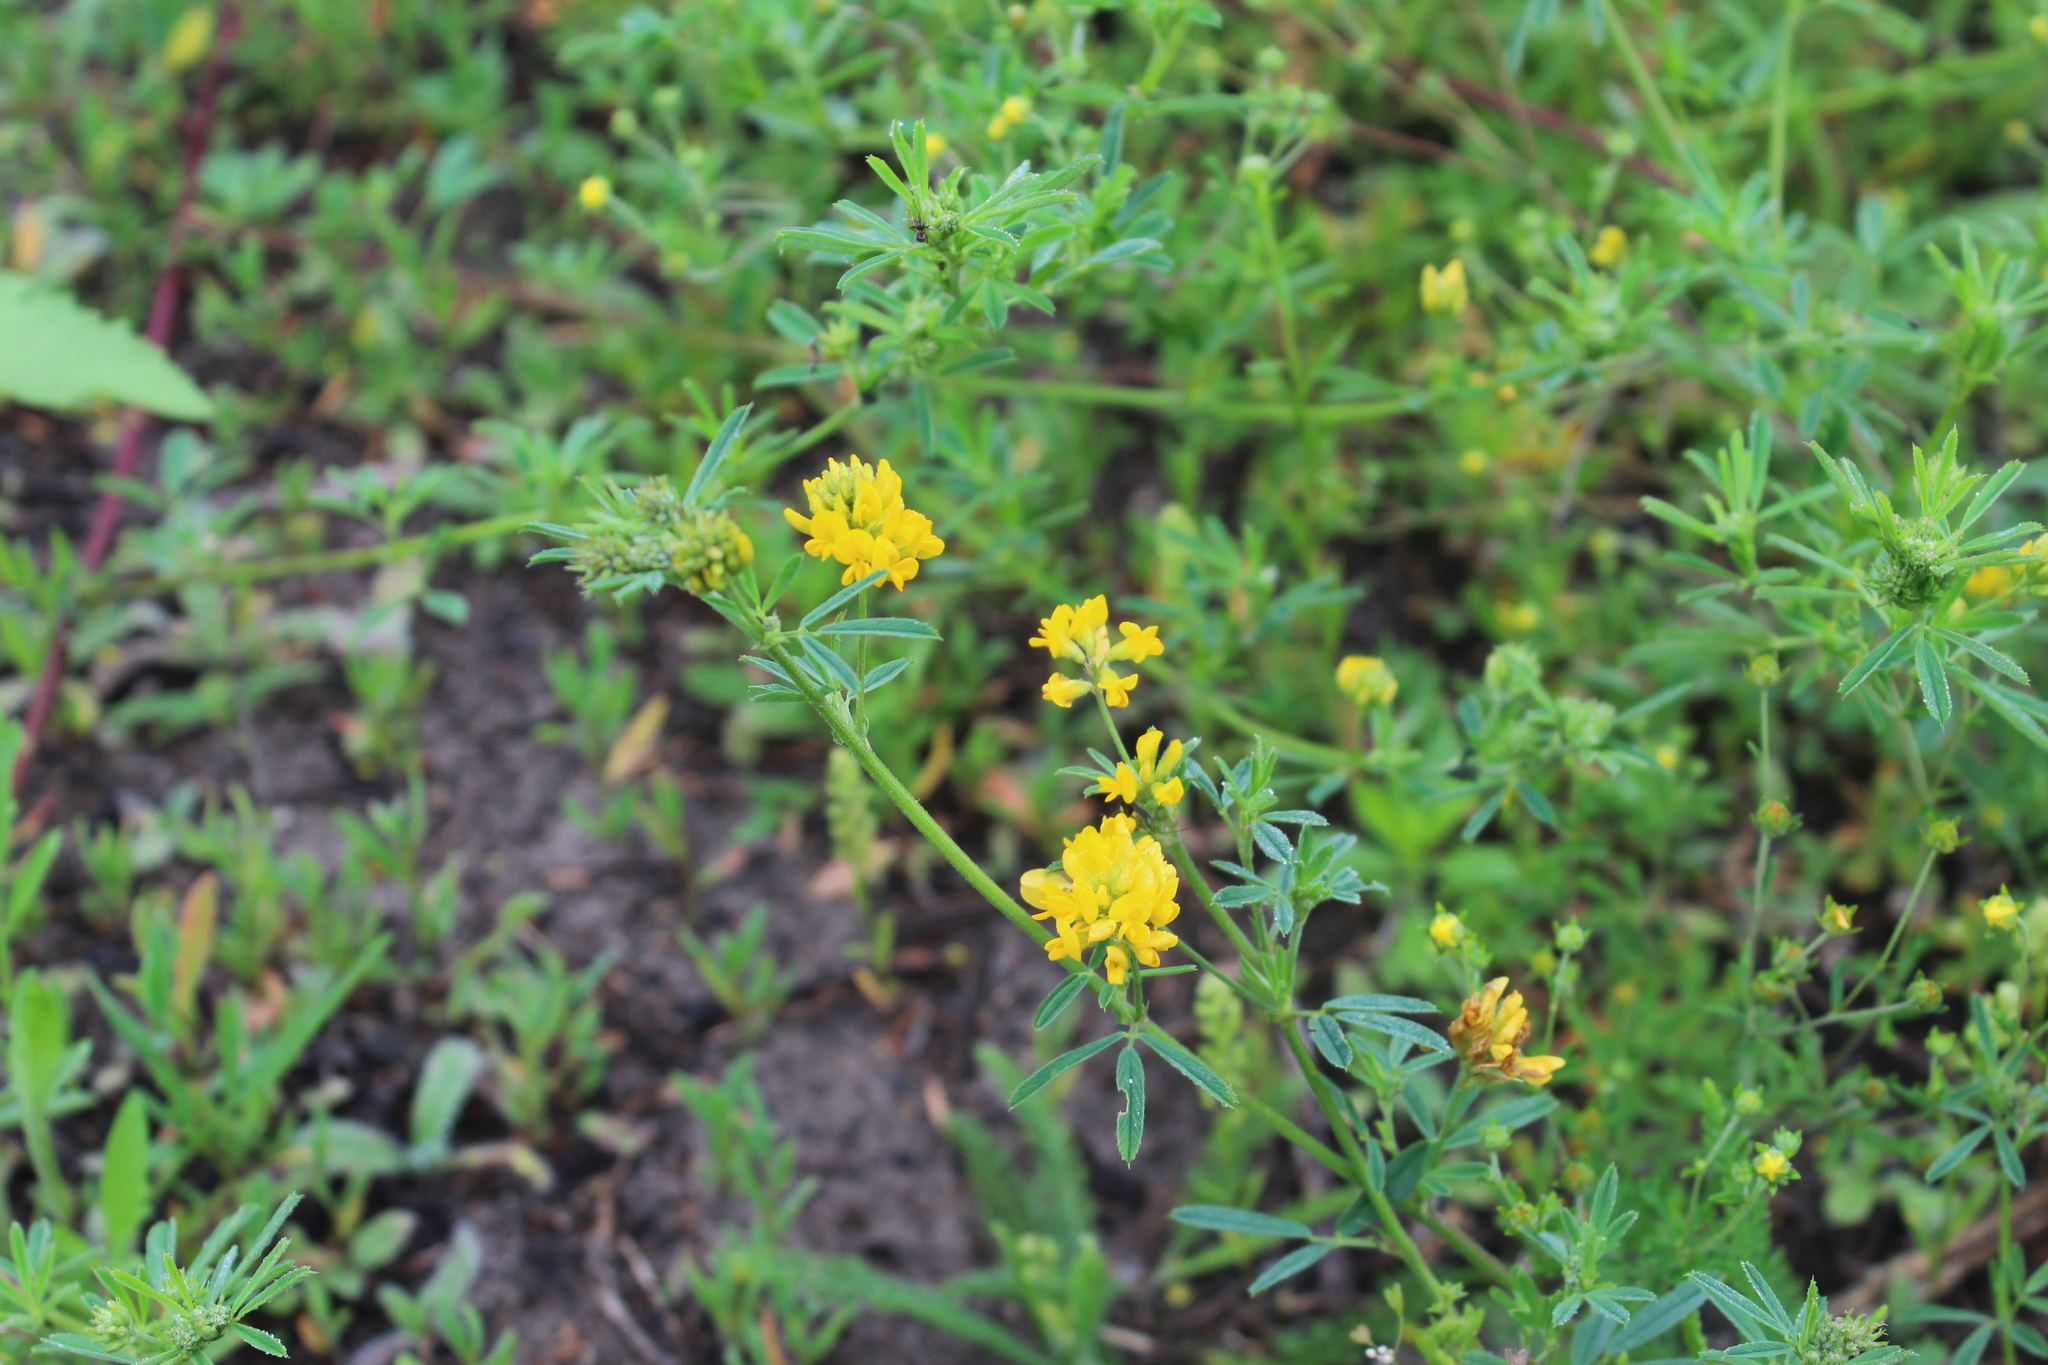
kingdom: Plantae
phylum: Tracheophyta
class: Magnoliopsida
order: Fabales
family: Fabaceae
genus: Medicago
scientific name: Medicago falcata
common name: Sickle medick
